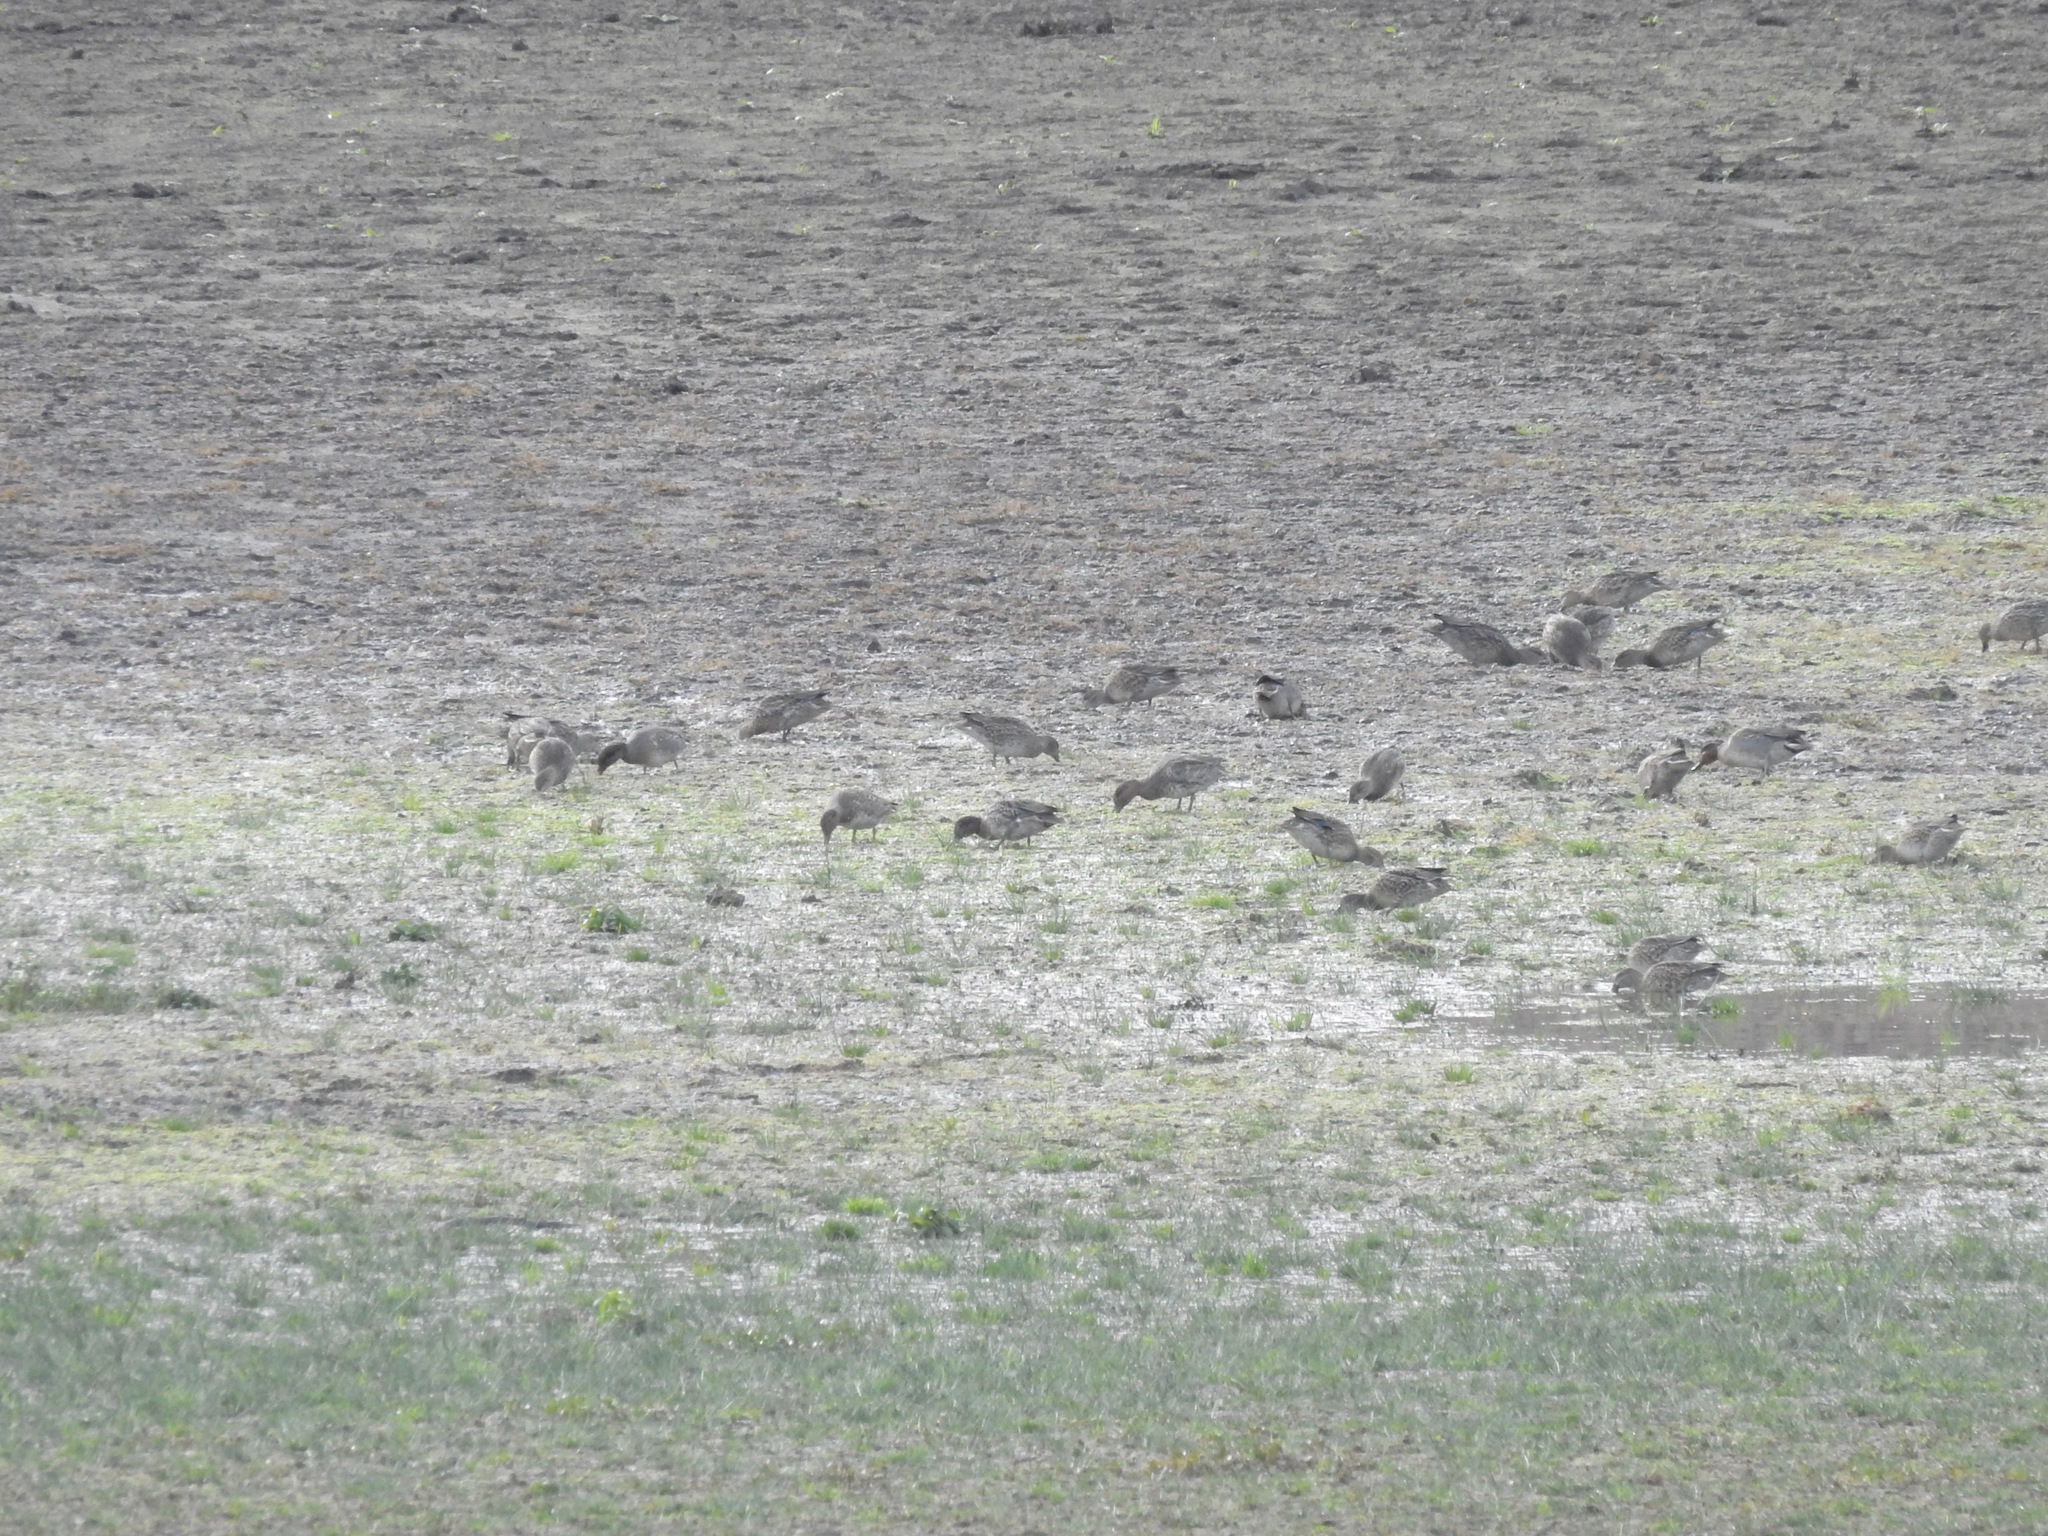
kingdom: Animalia
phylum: Chordata
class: Aves
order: Anseriformes
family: Anatidae
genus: Anas
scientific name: Anas crecca
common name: Eurasian teal
